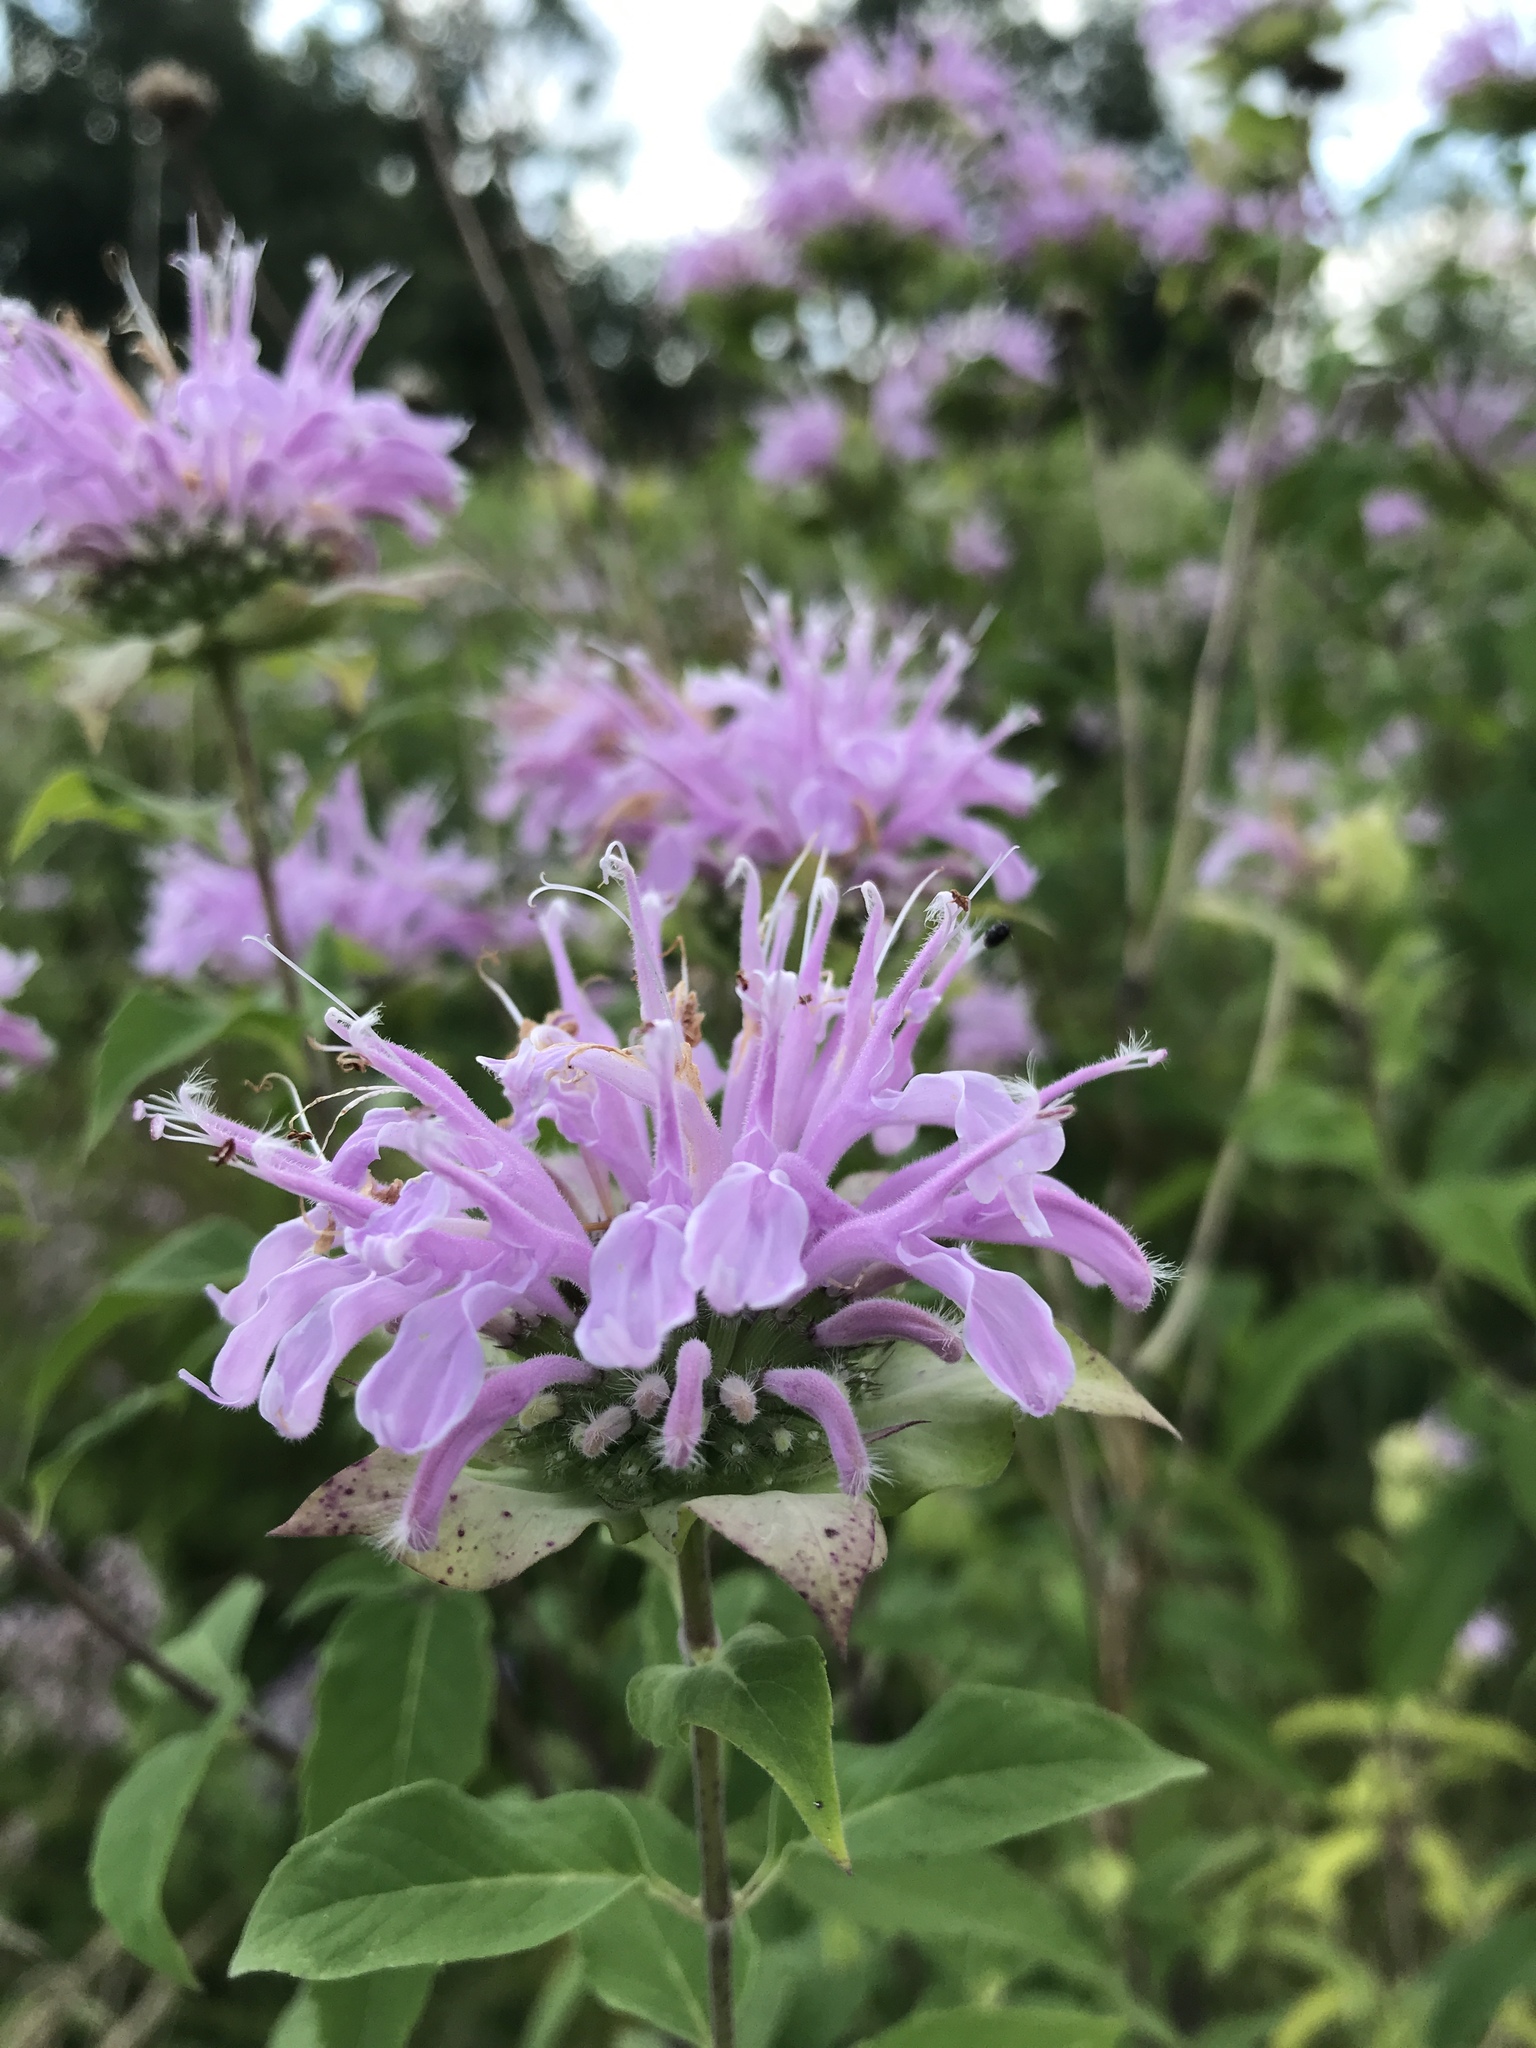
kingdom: Plantae
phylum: Tracheophyta
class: Magnoliopsida
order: Lamiales
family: Lamiaceae
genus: Monarda
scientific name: Monarda fistulosa
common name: Purple beebalm
